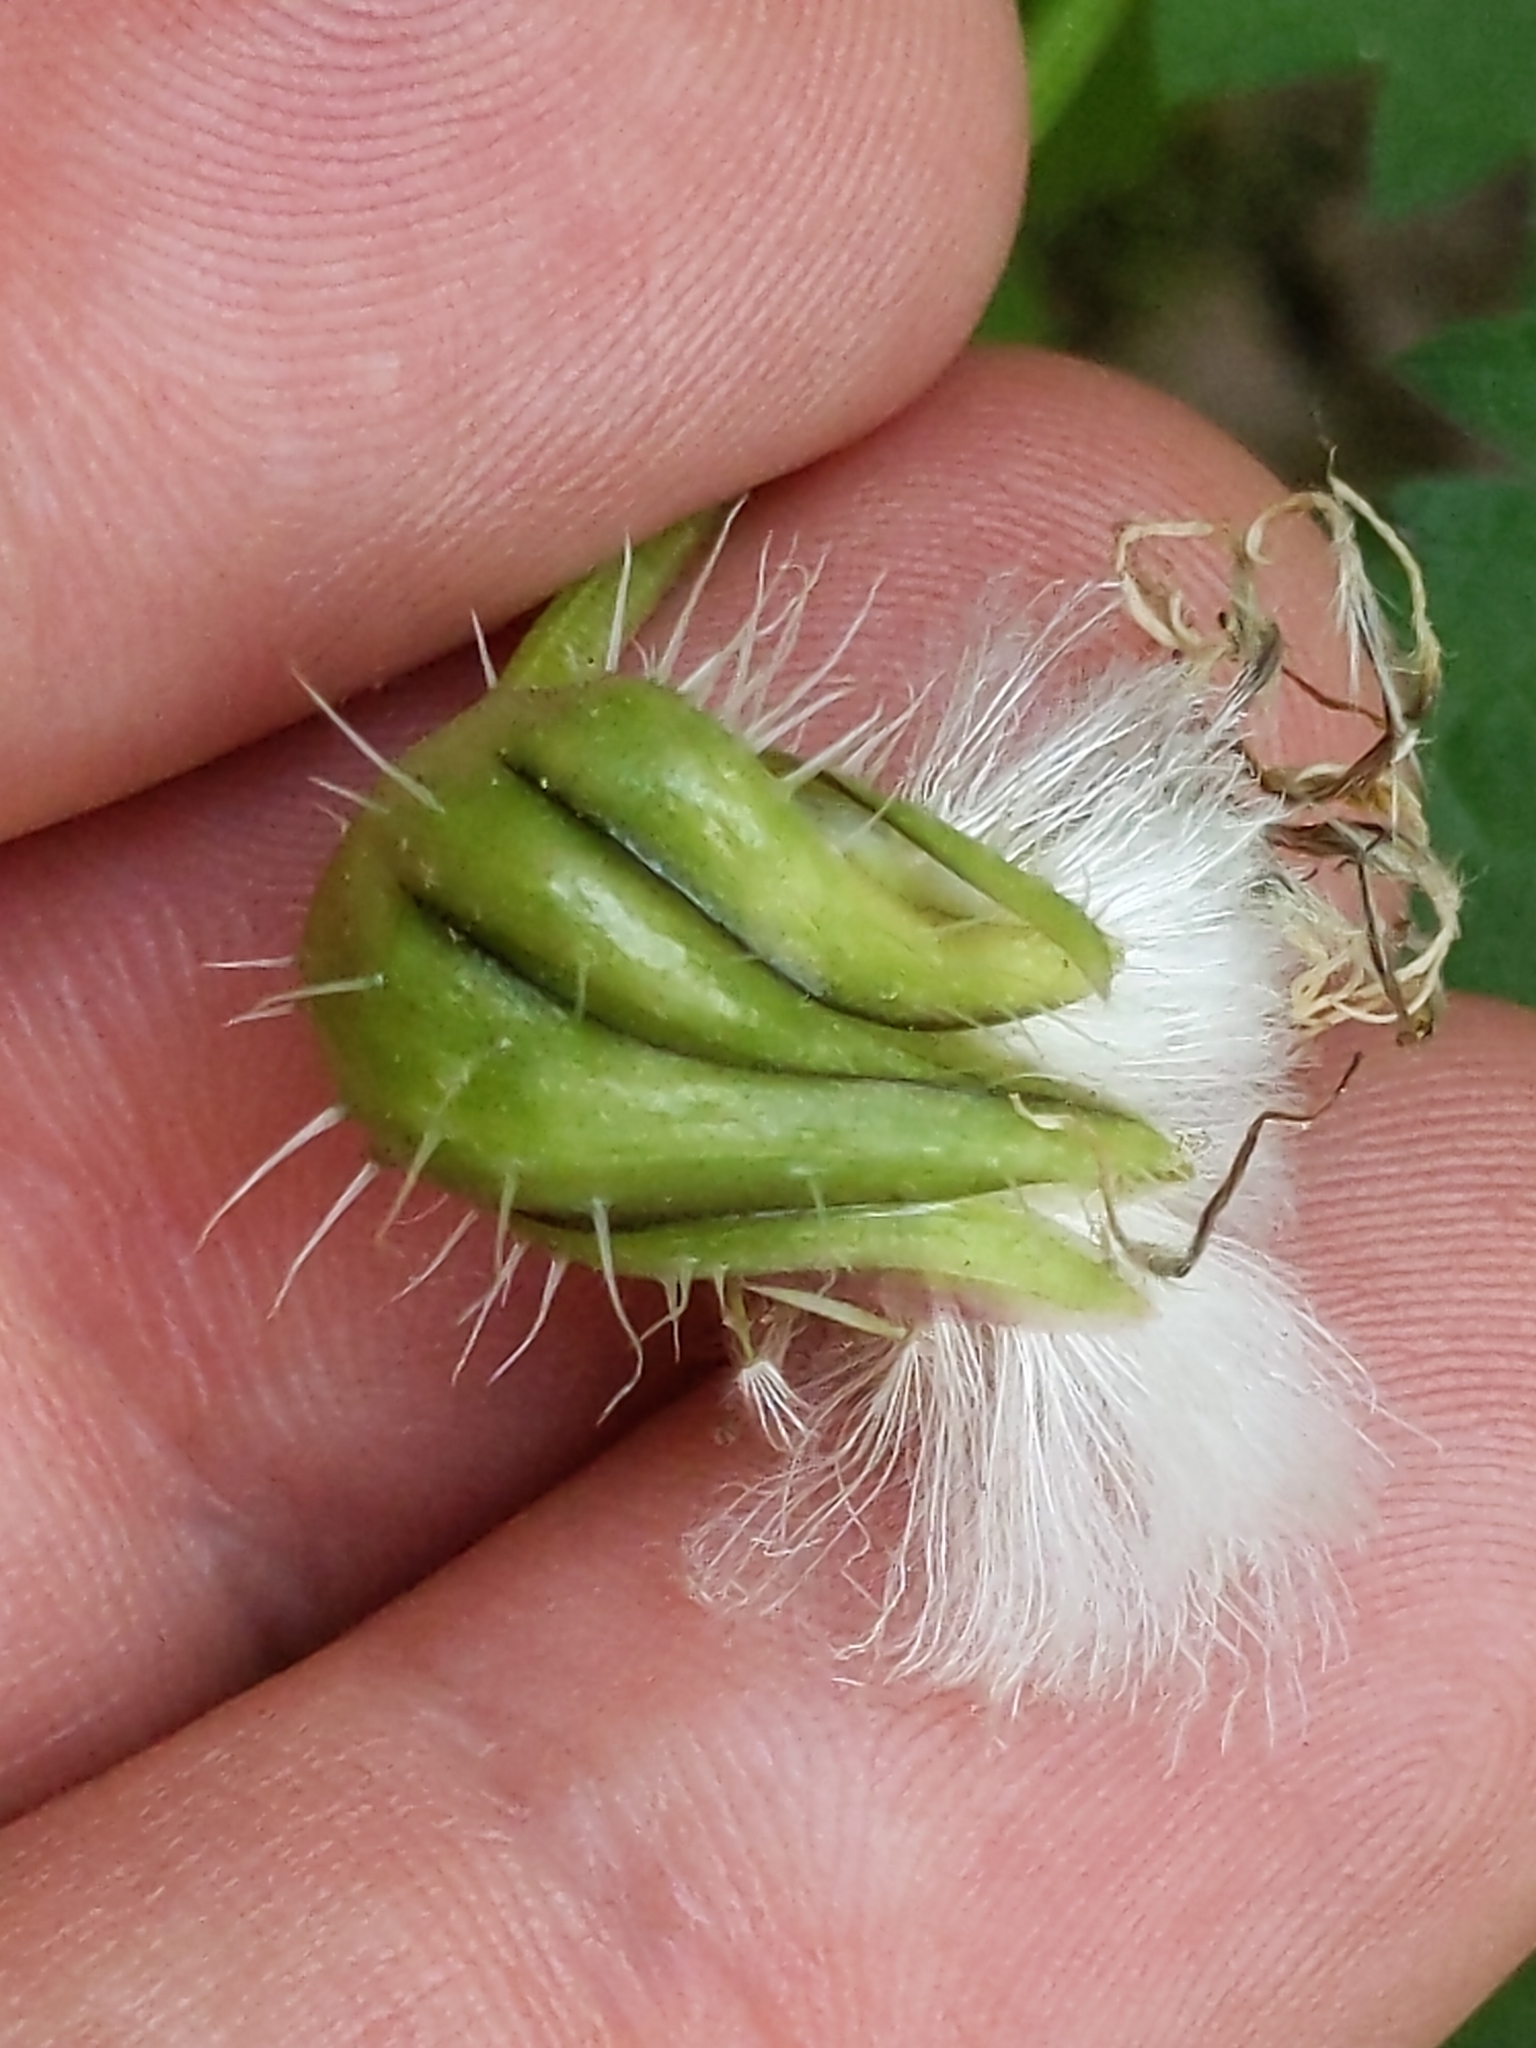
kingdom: Plantae
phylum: Tracheophyta
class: Magnoliopsida
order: Asterales
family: Asteraceae
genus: Urospermum
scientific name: Urospermum picroides
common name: False hawkbit
